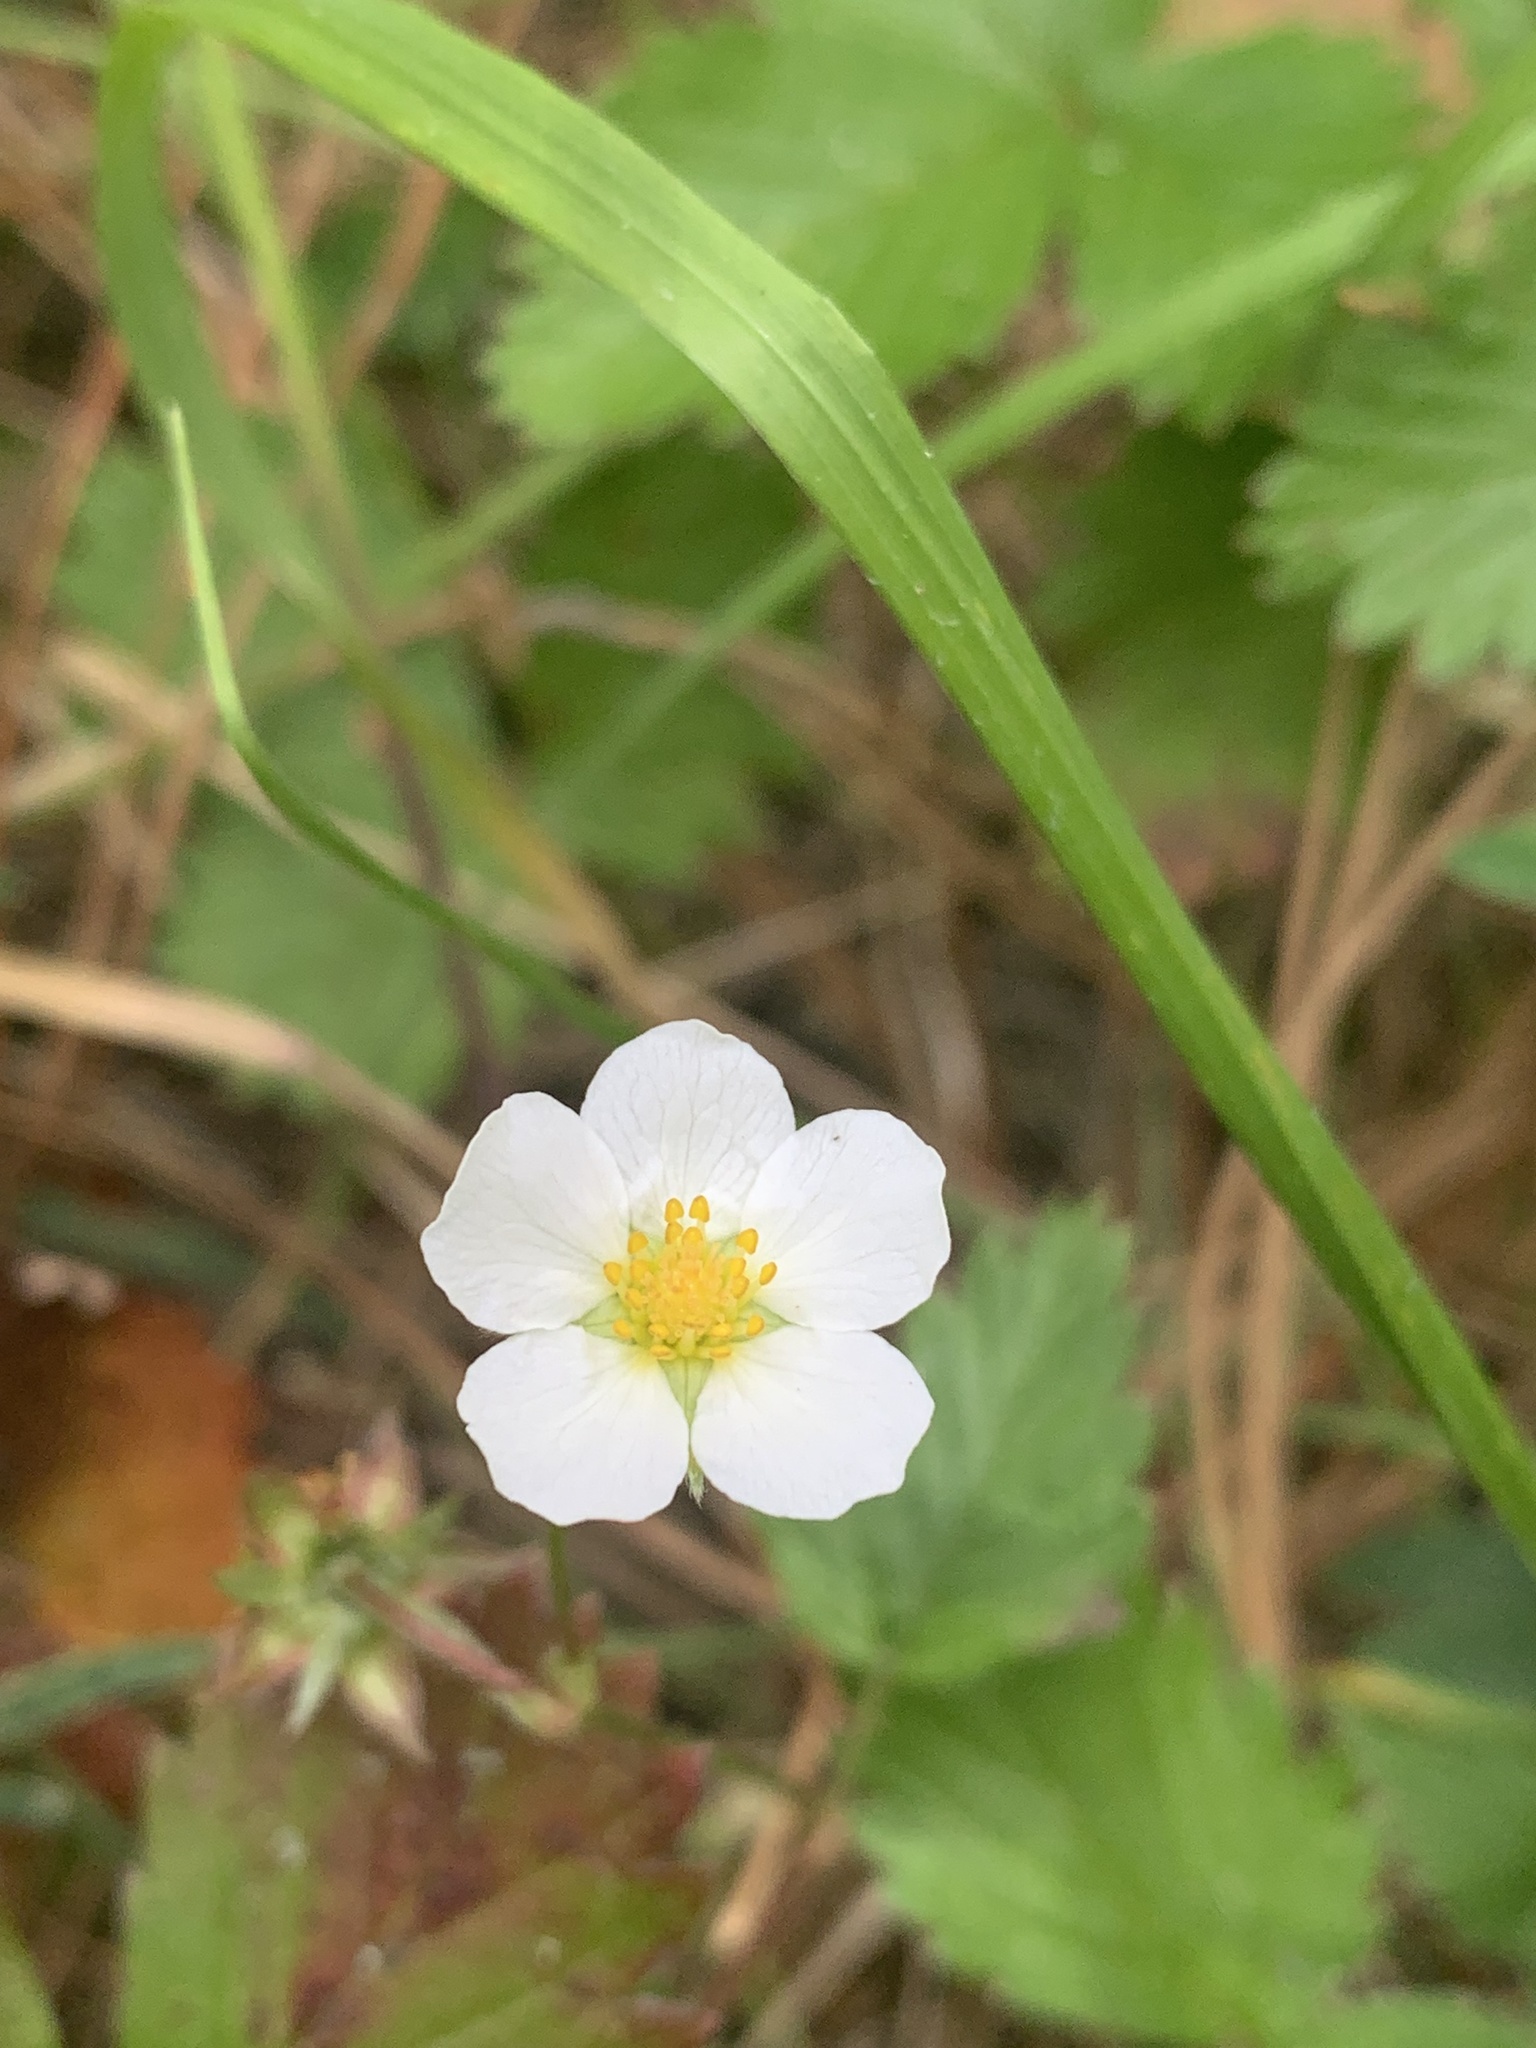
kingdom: Plantae
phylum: Tracheophyta
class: Magnoliopsida
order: Rosales
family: Rosaceae
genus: Fragaria
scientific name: Fragaria vesca
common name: Wild strawberry
